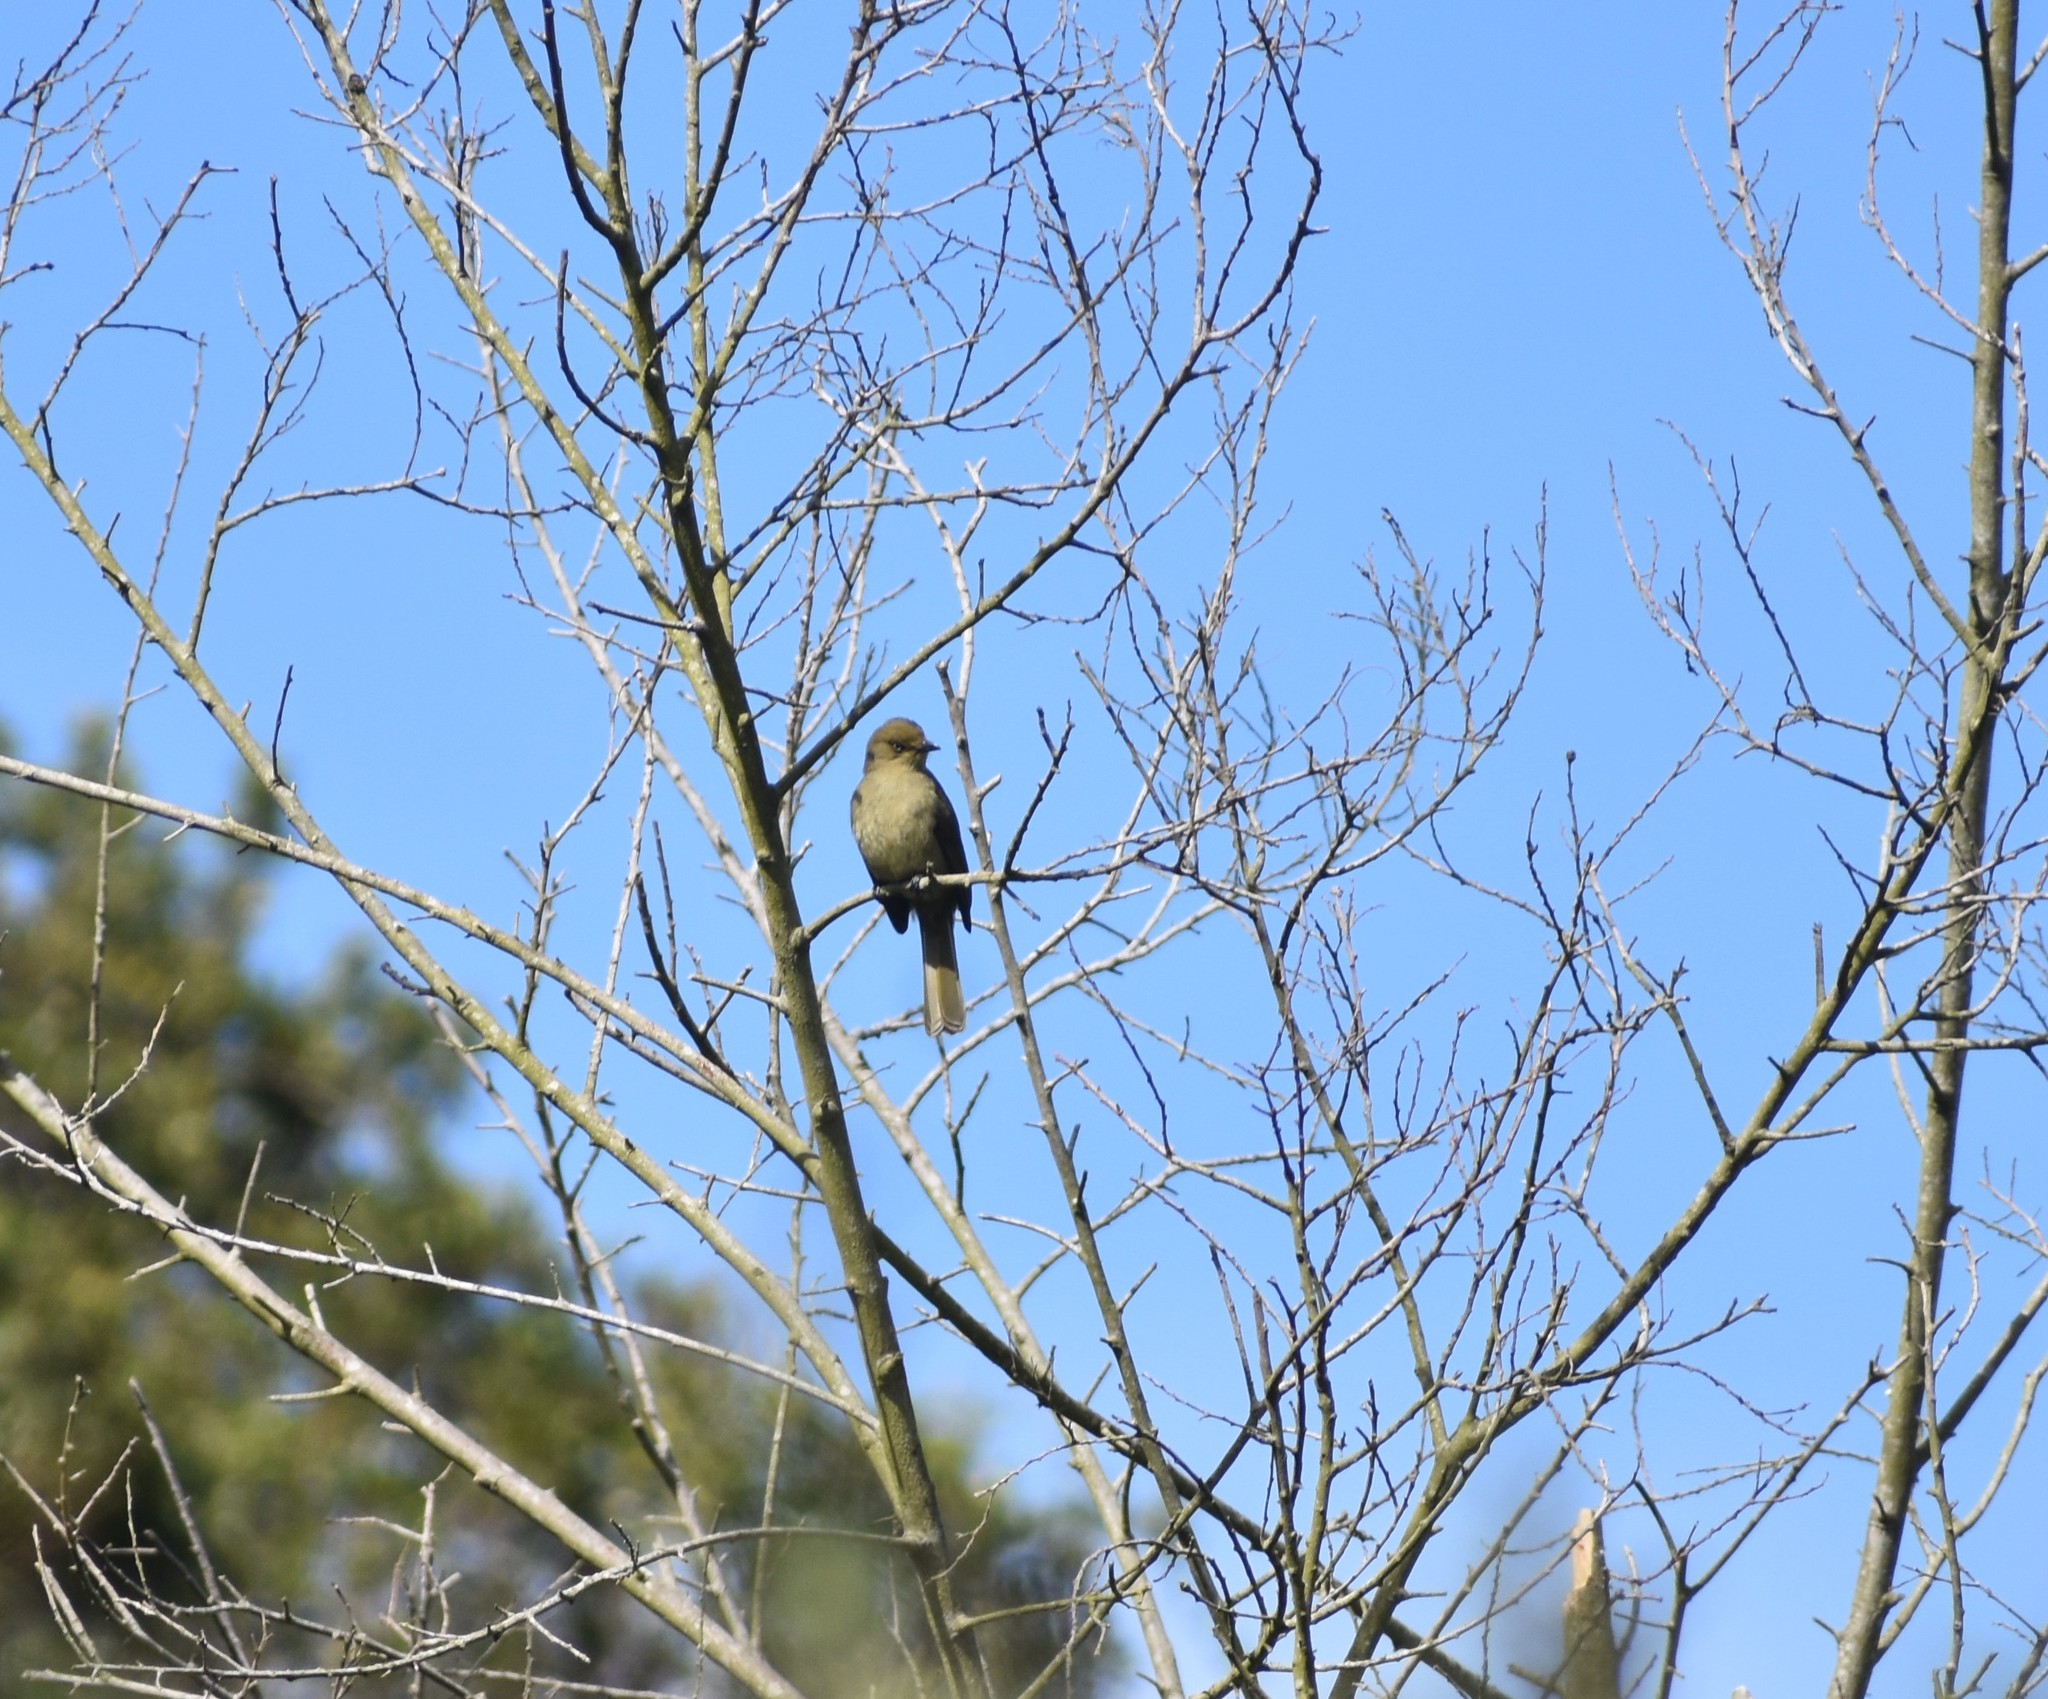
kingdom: Animalia
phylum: Chordata
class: Aves
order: Passeriformes
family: Pycnonotidae
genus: Andropadus
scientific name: Andropadus importunus
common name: Sombre greenbul
